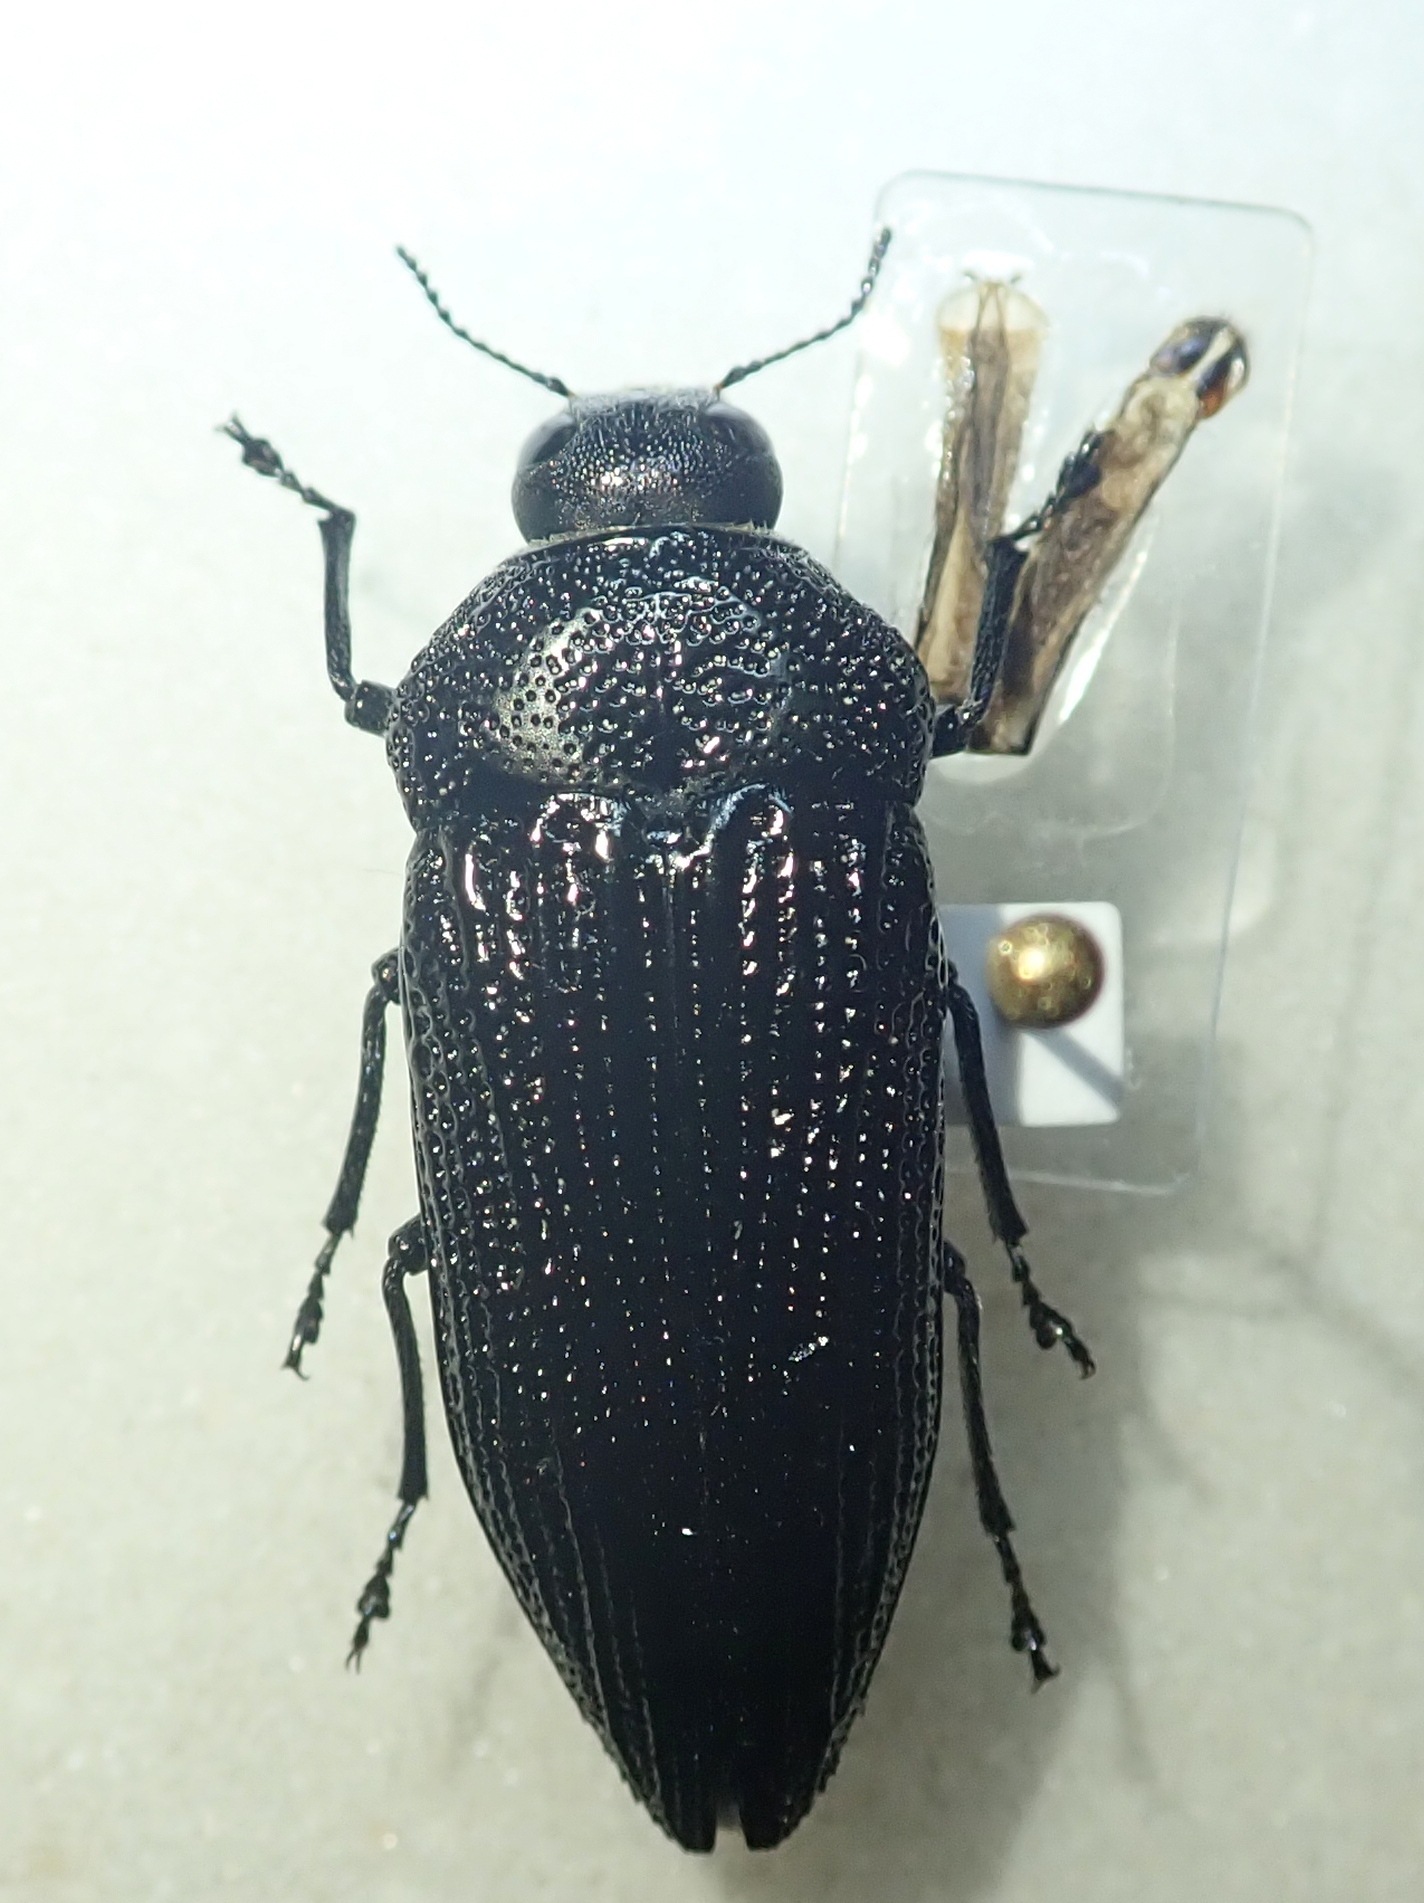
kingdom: Animalia
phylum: Arthropoda
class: Insecta
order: Coleoptera
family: Buprestidae
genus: Polycesta
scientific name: Polycesta aruensis
